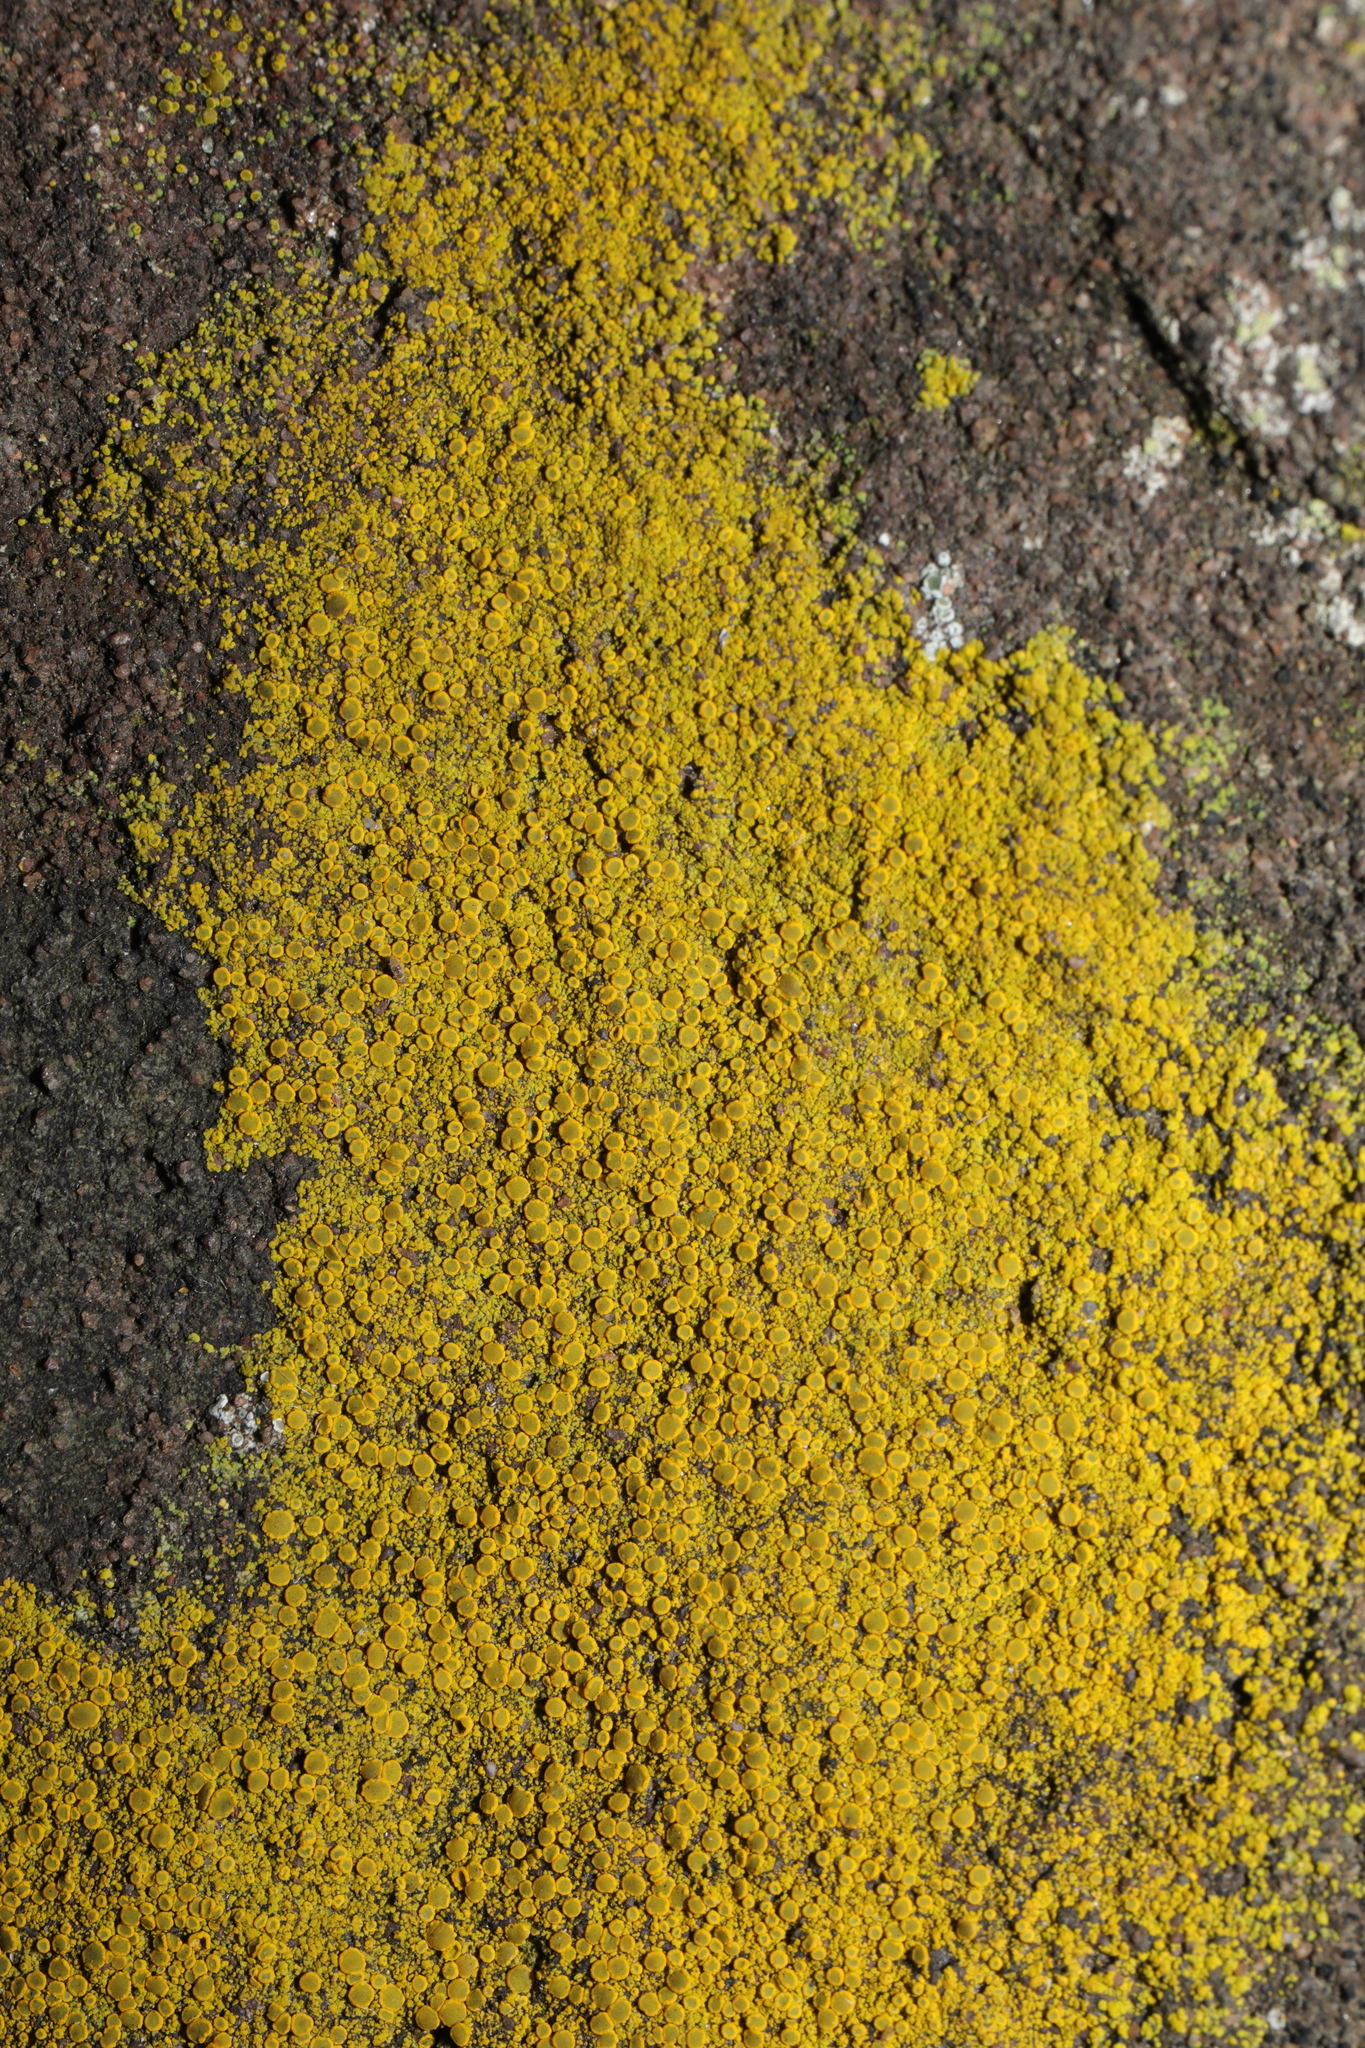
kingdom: Fungi
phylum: Ascomycota
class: Candelariomycetes
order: Candelariales
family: Candelariaceae
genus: Candelariella
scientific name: Candelariella vitellina
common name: Common goldspeck
